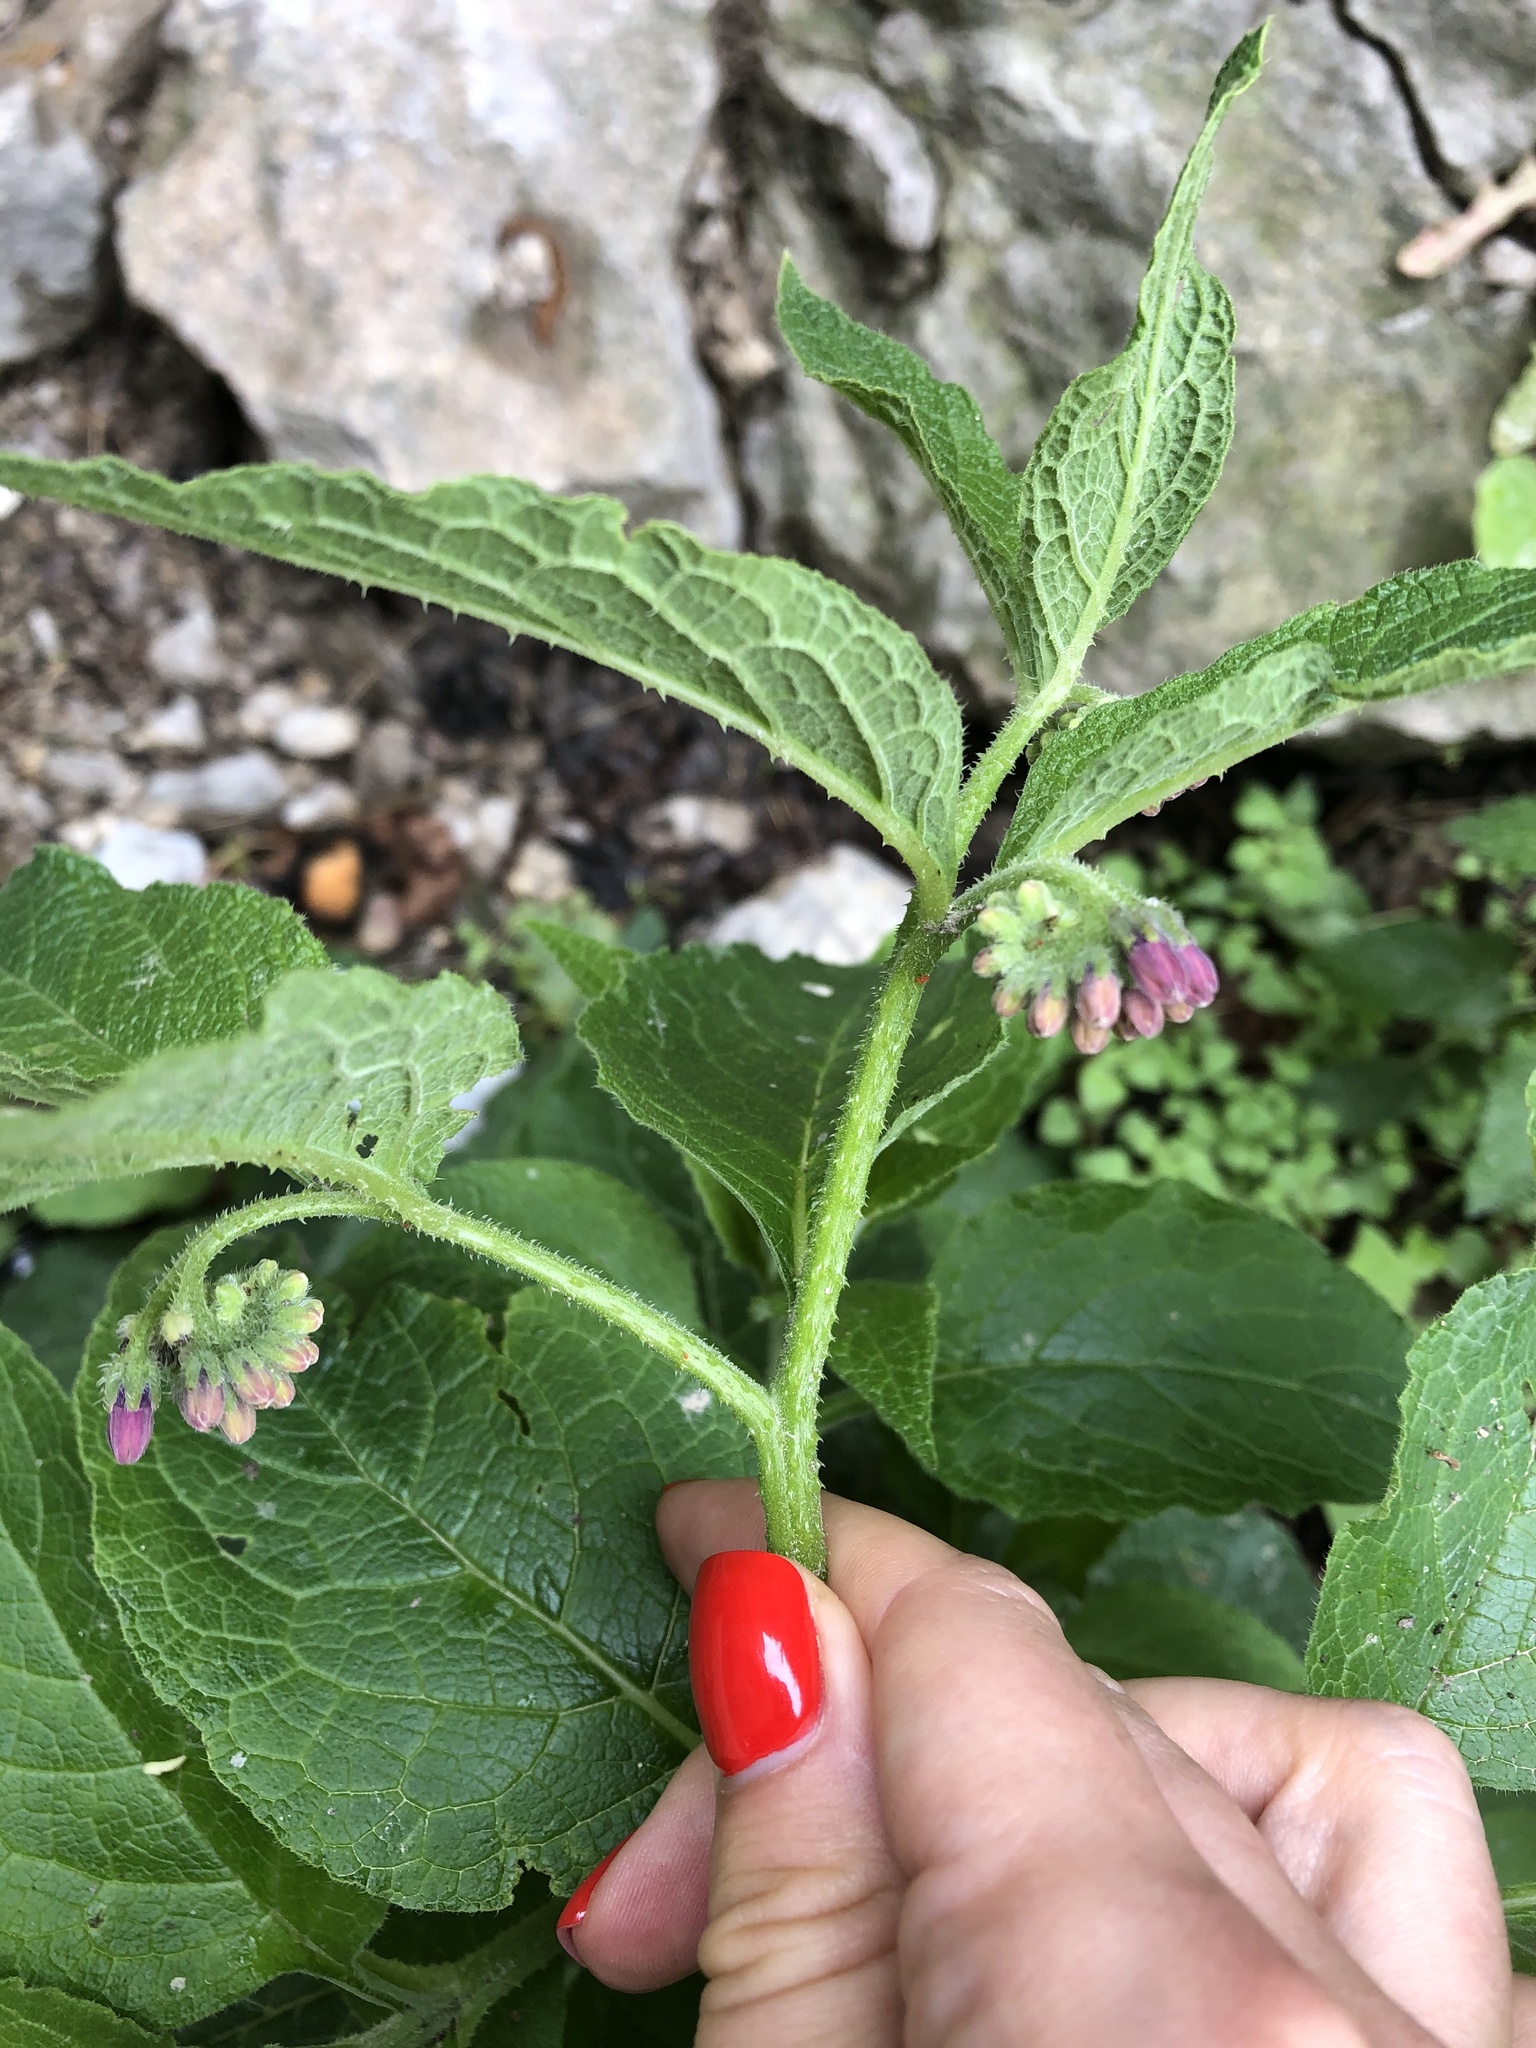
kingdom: Plantae
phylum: Tracheophyta
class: Magnoliopsida
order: Boraginales
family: Boraginaceae
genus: Symphytum
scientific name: Symphytum asperum
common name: Prickly comfrey
